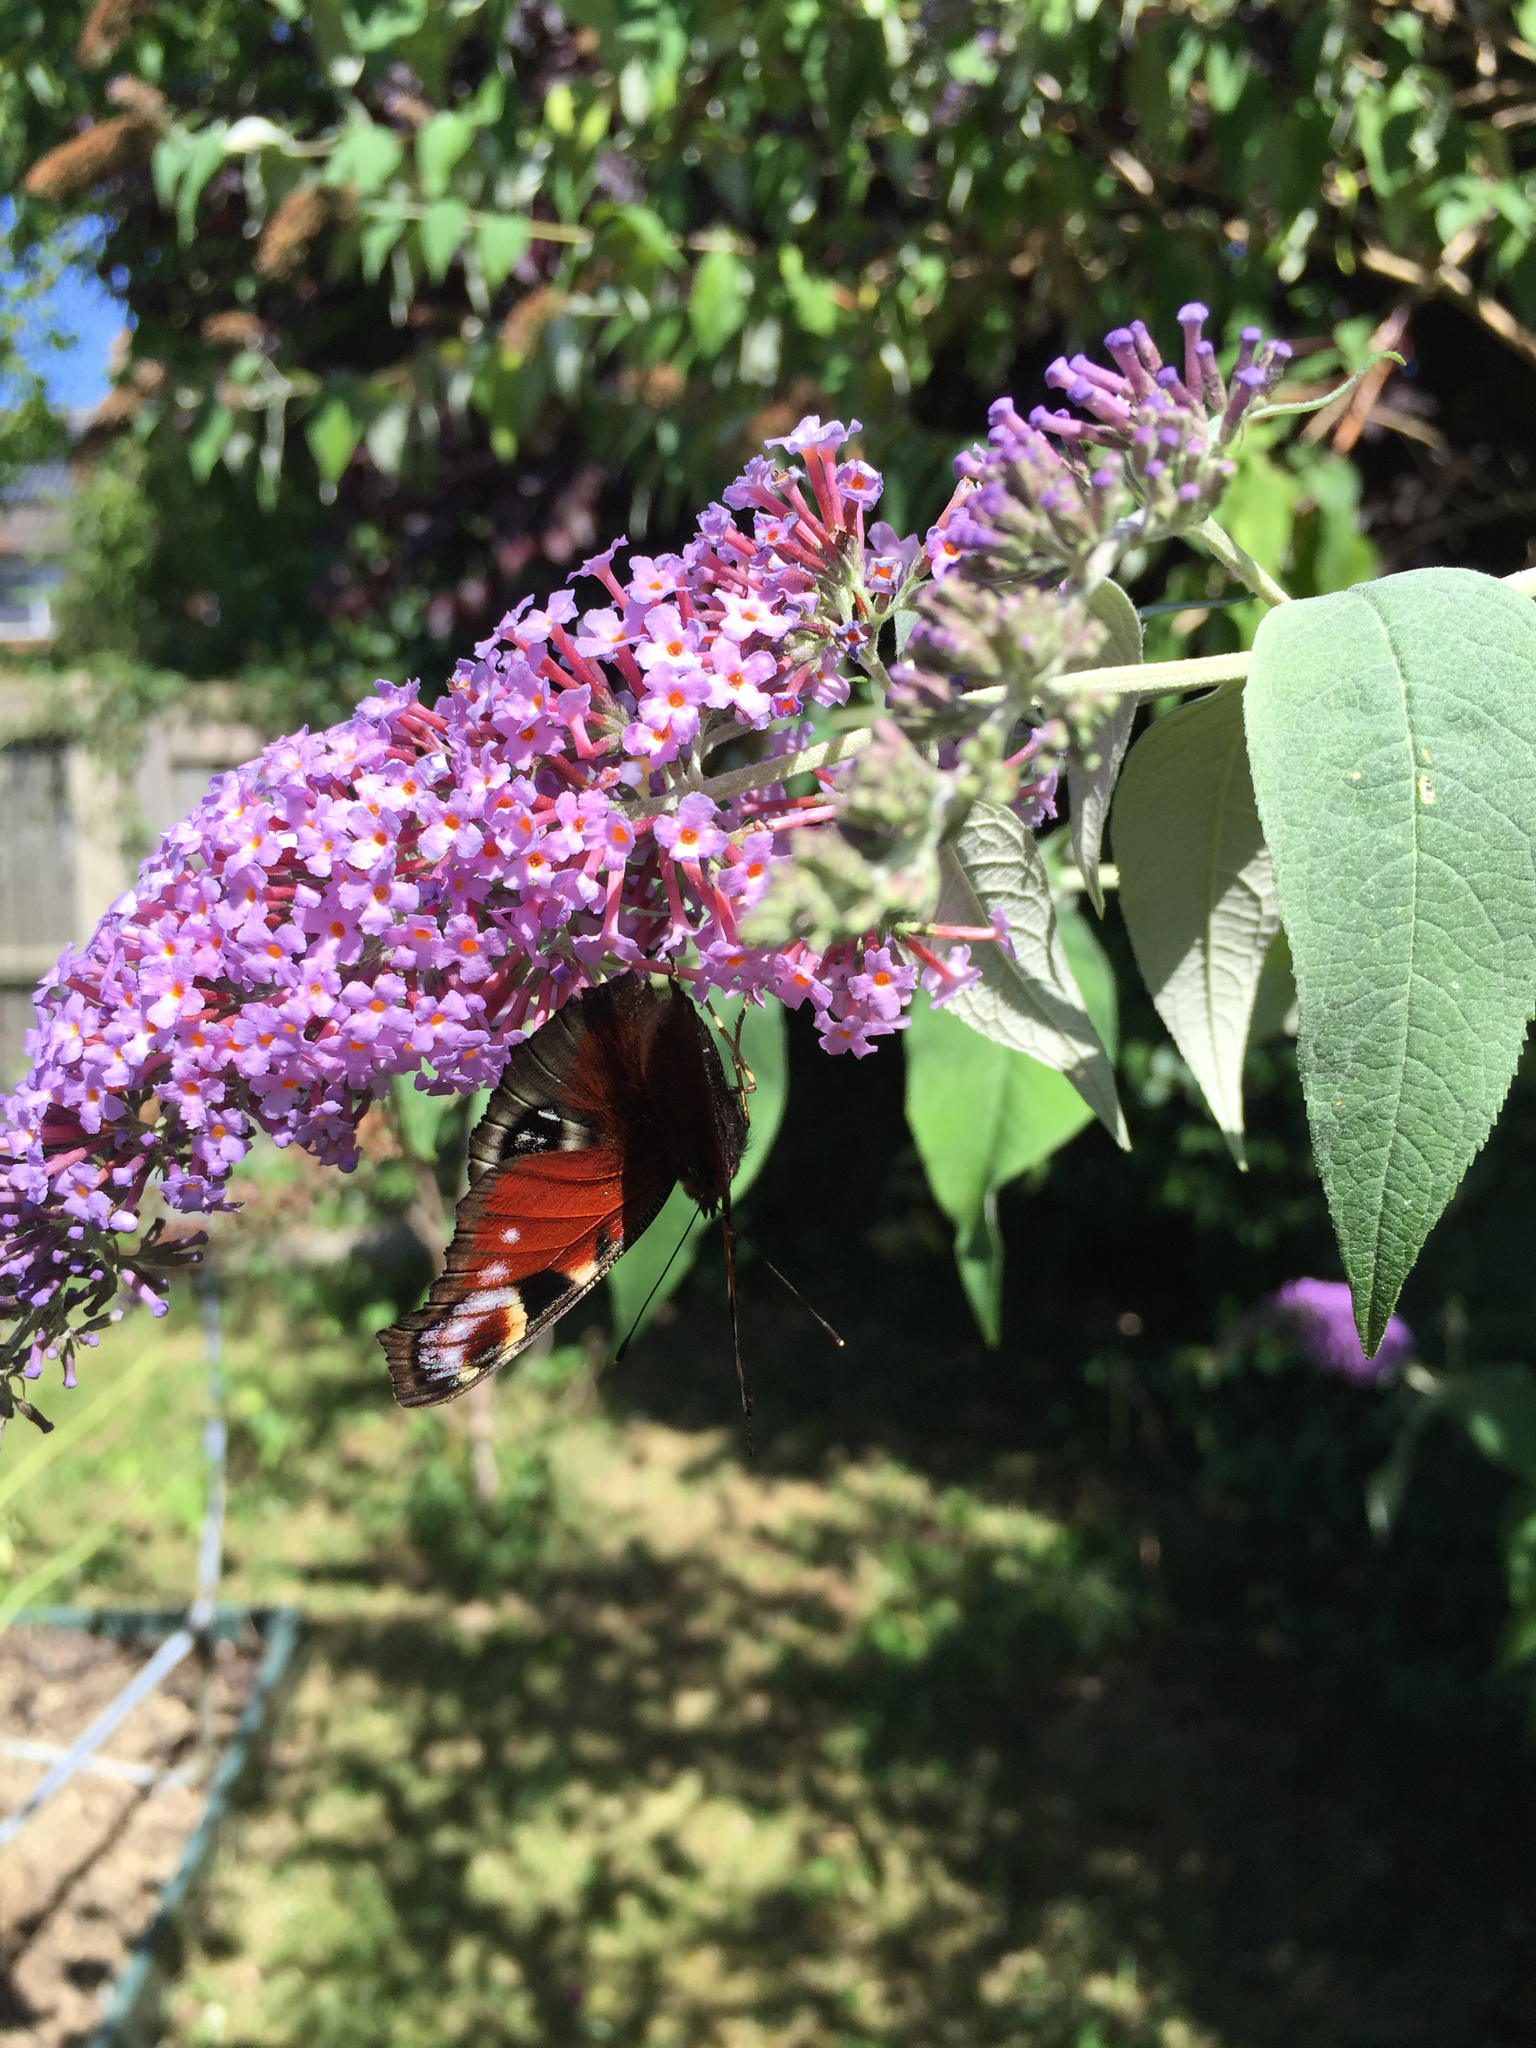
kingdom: Animalia
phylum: Arthropoda
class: Insecta
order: Lepidoptera
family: Nymphalidae
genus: Aglais
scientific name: Aglais io
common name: Peacock
